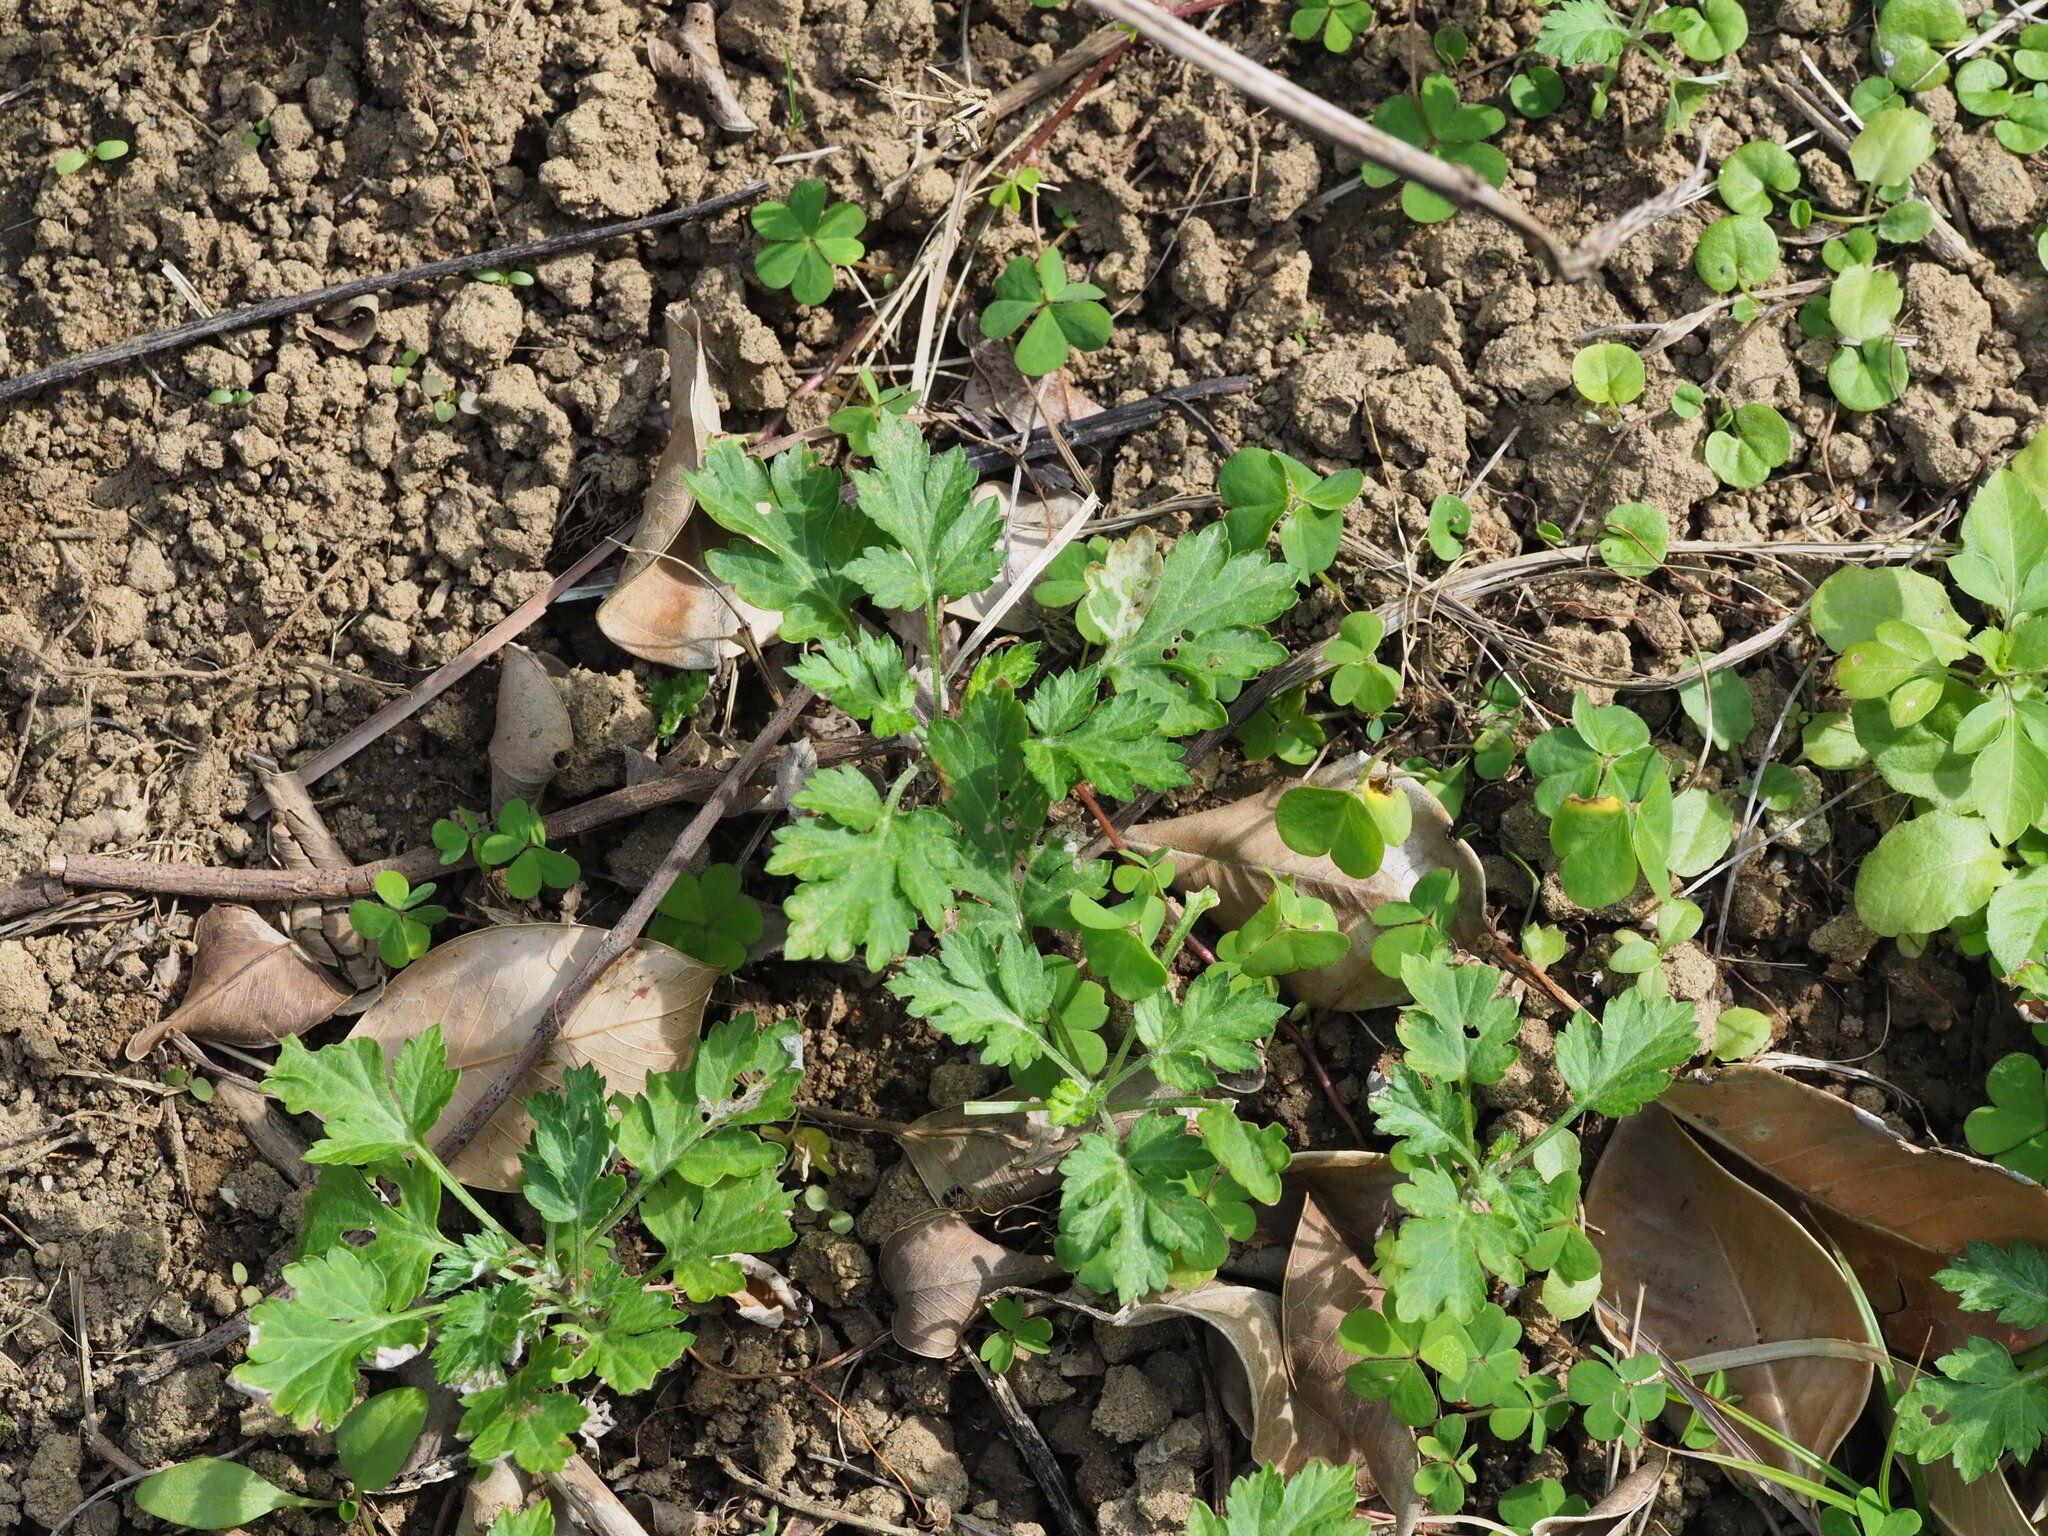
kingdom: Plantae
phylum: Tracheophyta
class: Magnoliopsida
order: Asterales
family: Asteraceae
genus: Artemisia
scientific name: Artemisia indica
